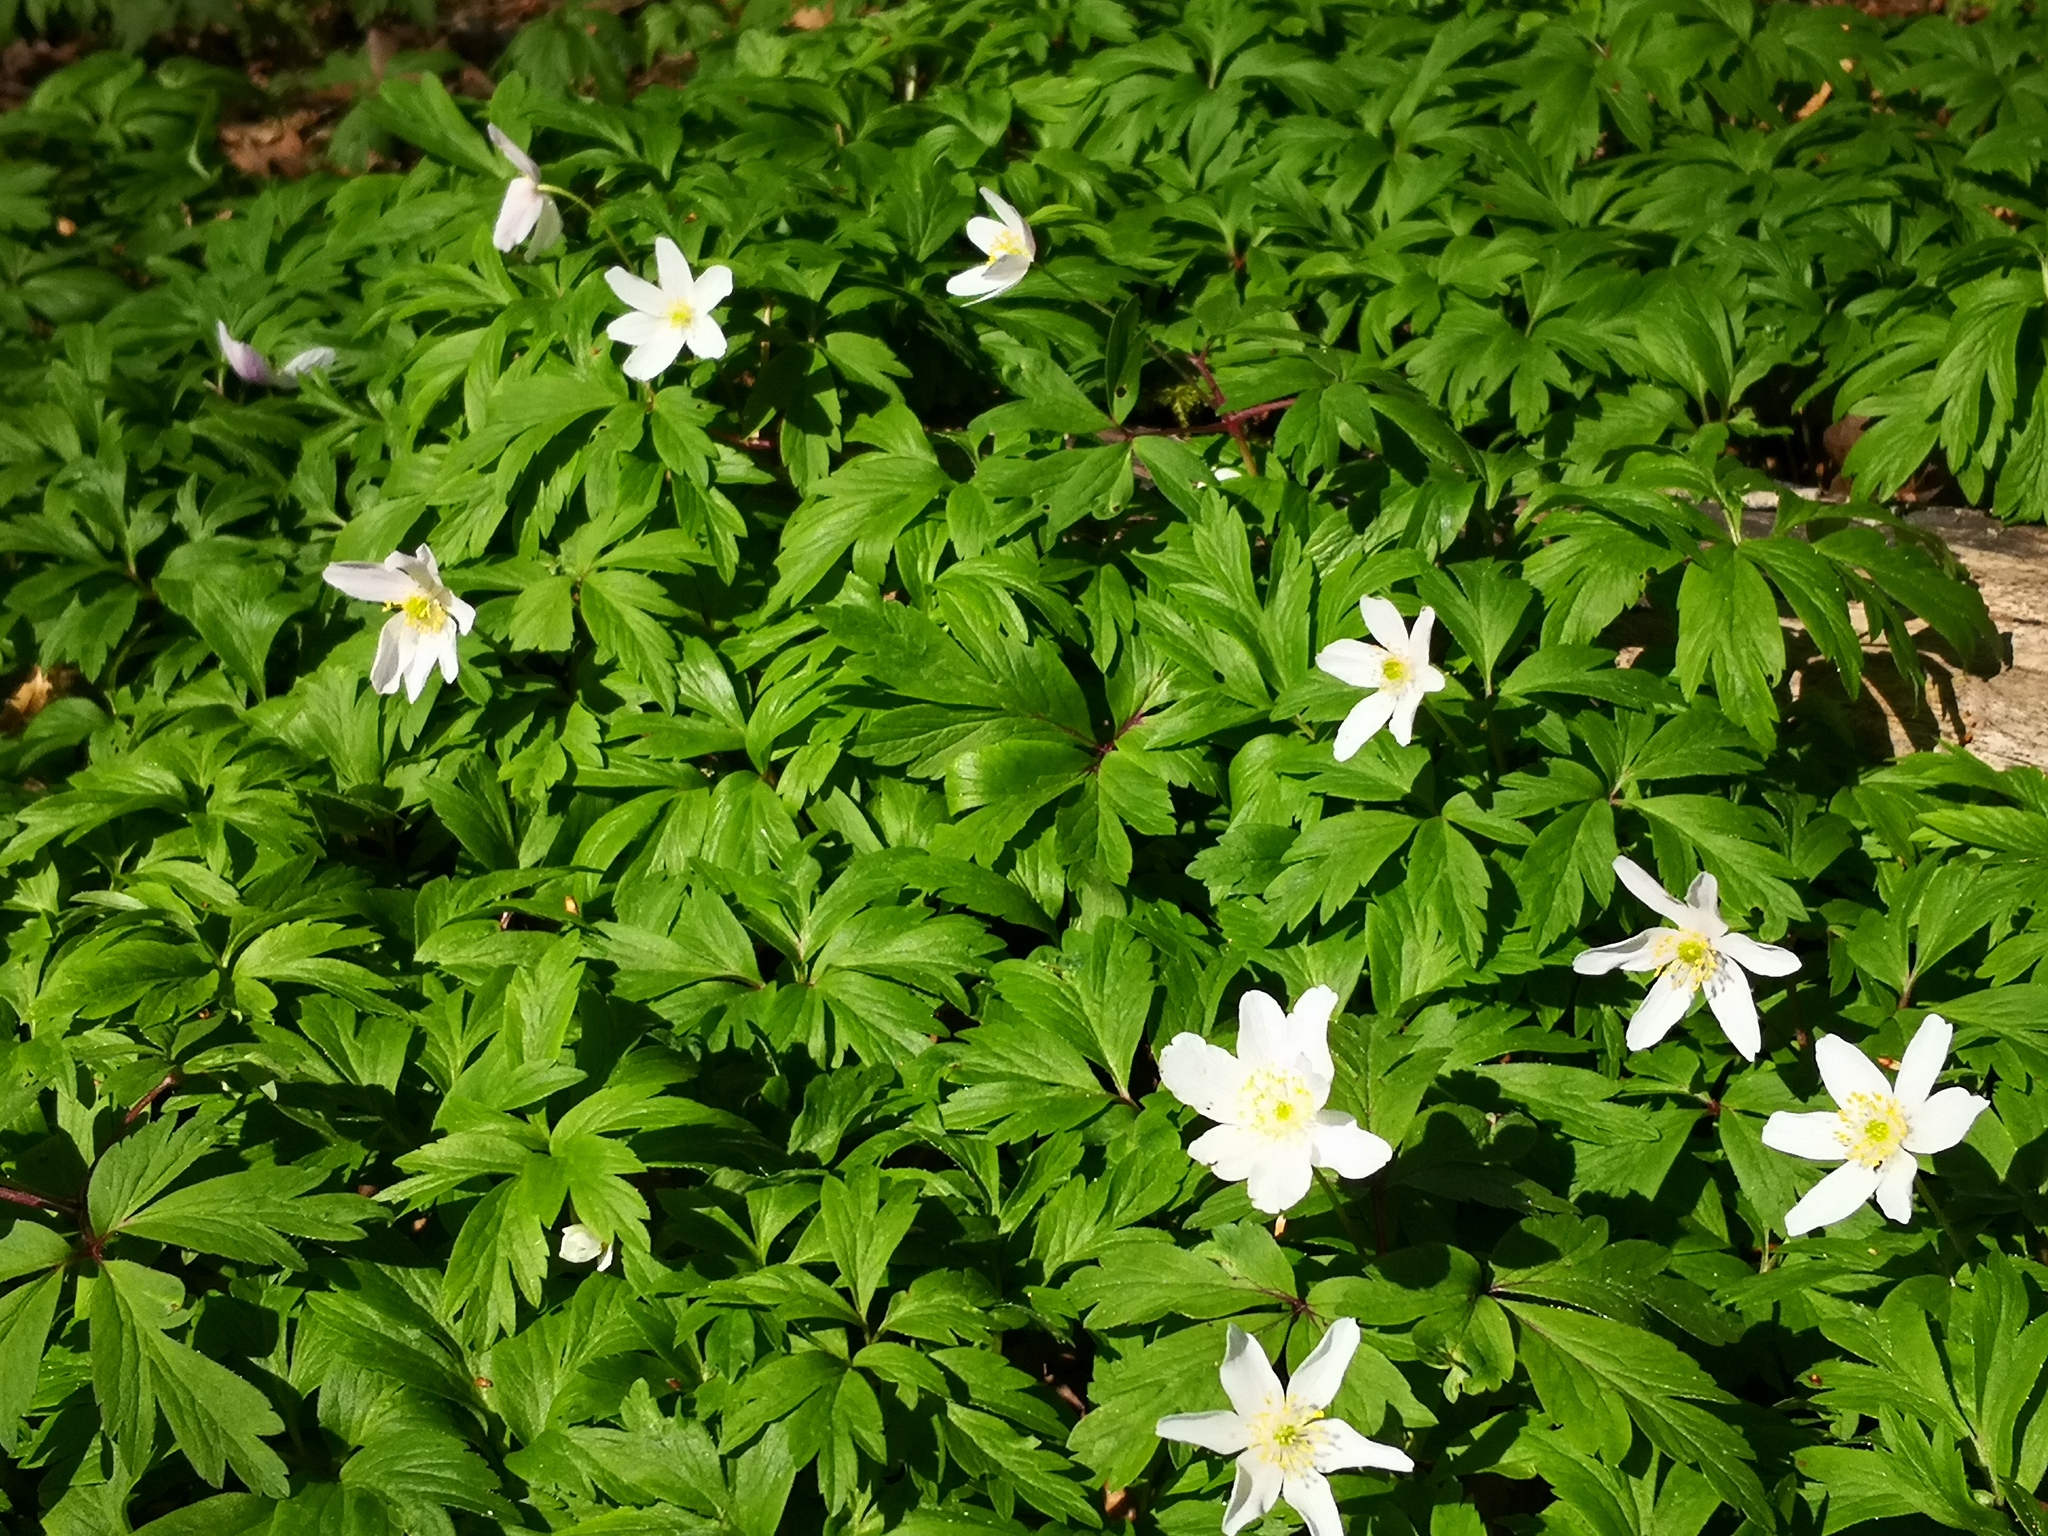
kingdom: Plantae
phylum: Tracheophyta
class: Magnoliopsida
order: Ranunculales
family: Ranunculaceae
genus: Anemone
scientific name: Anemone nemorosa
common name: Wood anemone
